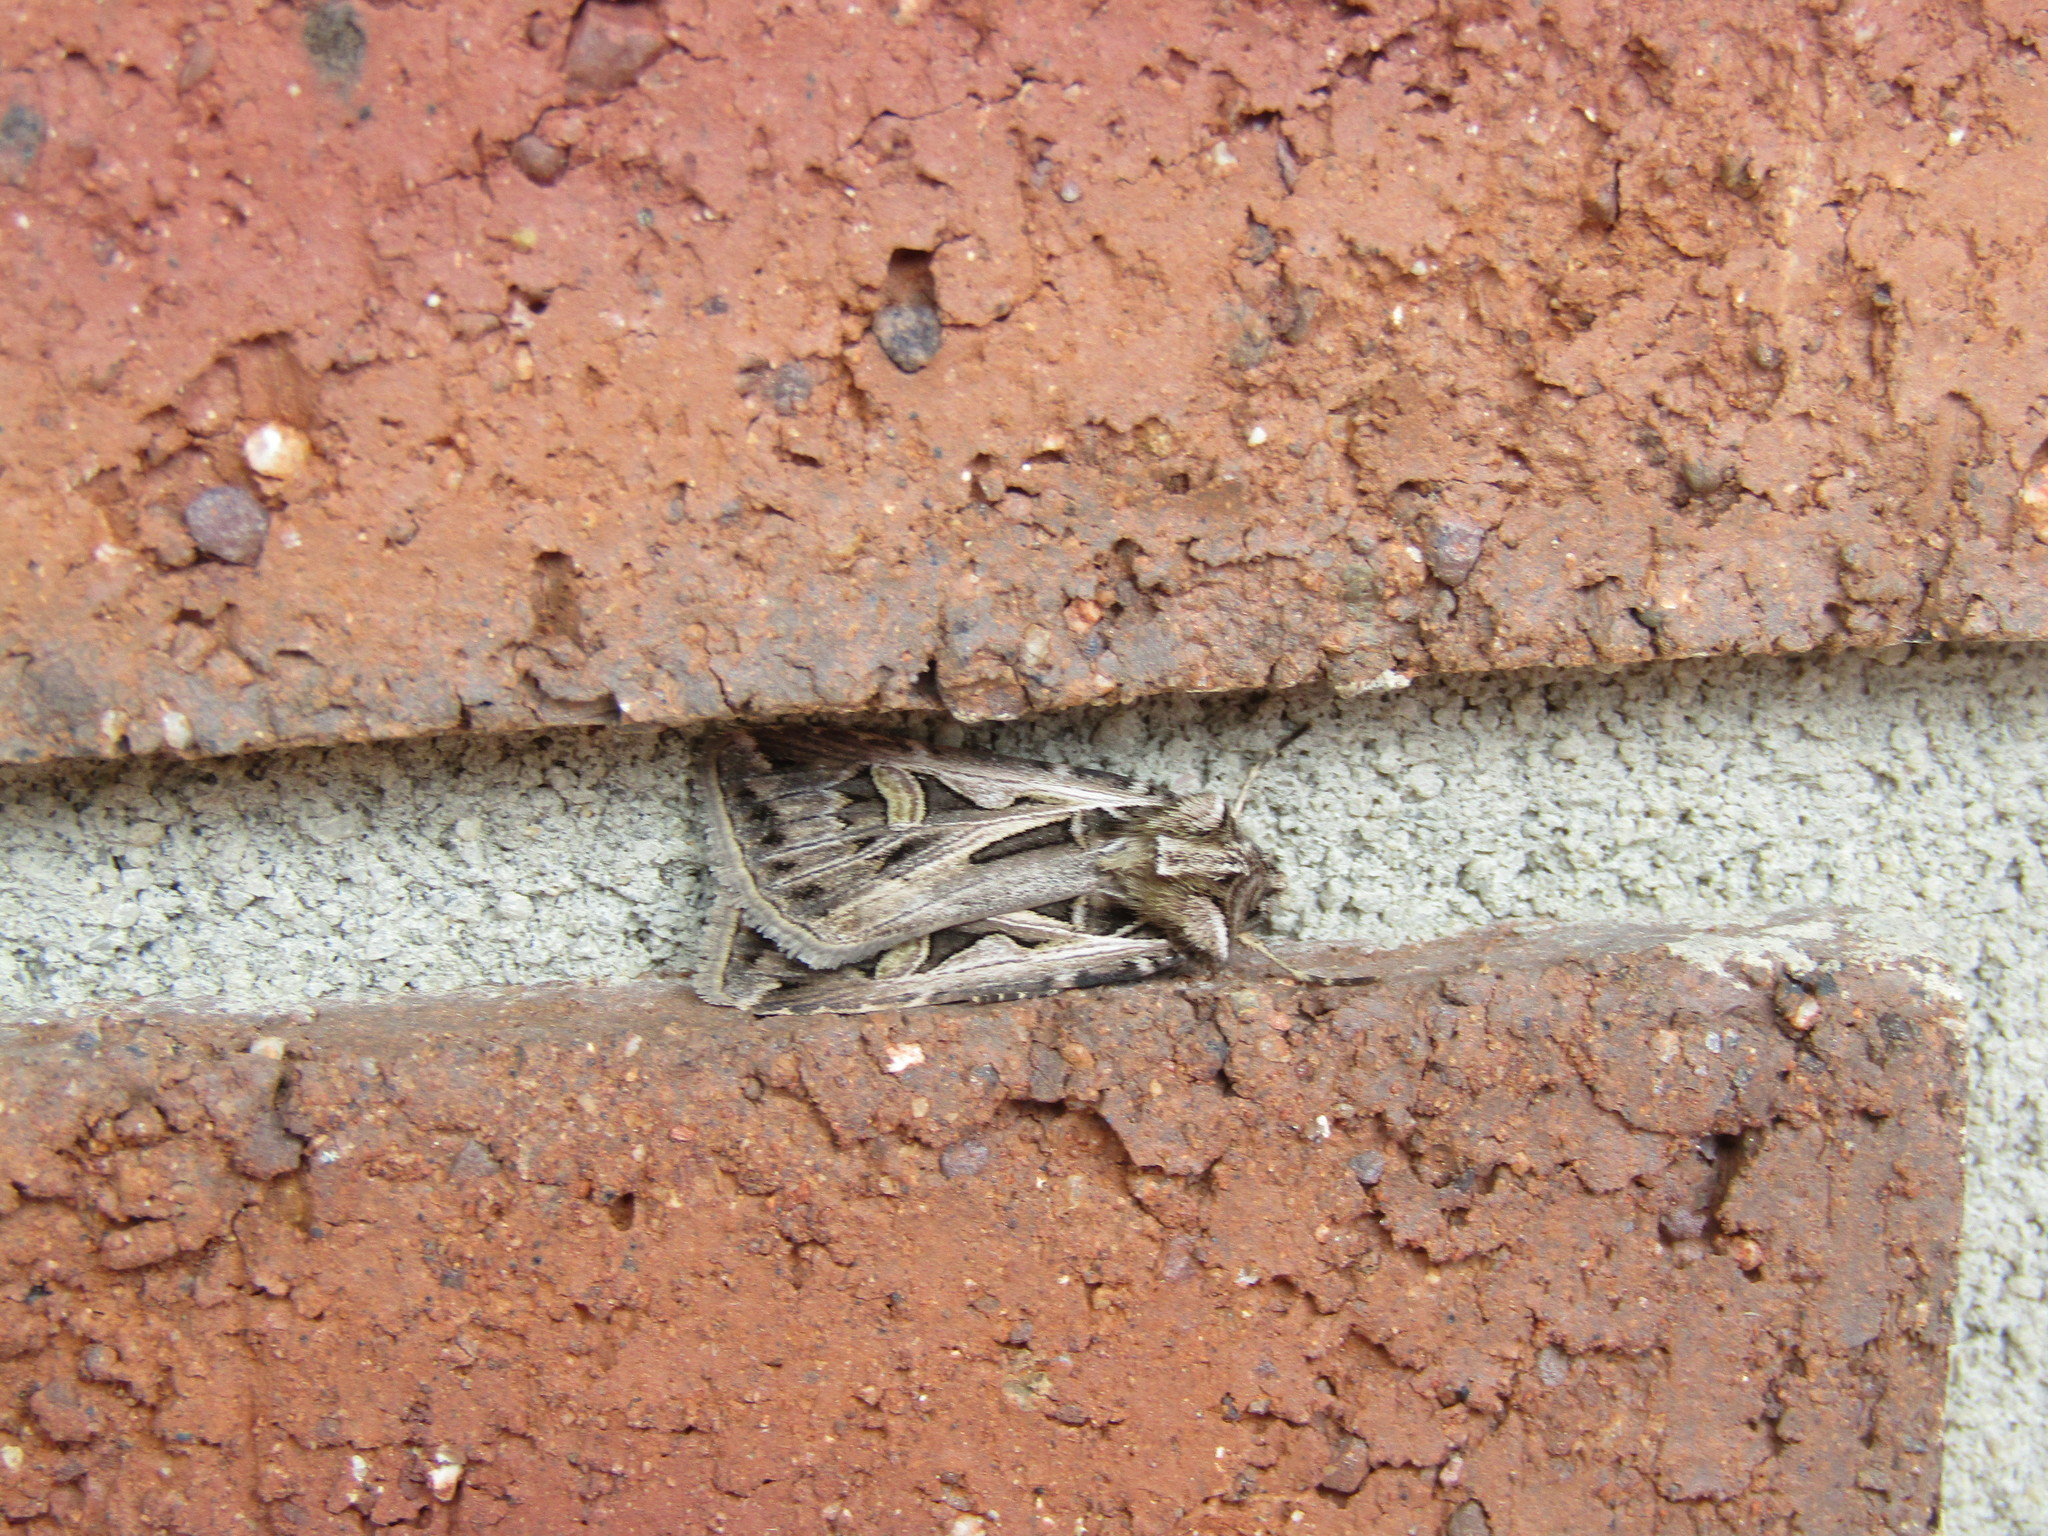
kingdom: Animalia
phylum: Arthropoda
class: Insecta
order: Lepidoptera
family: Noctuidae
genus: Feltia
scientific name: Feltia jaculifera
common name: Dingy cutworm moth
